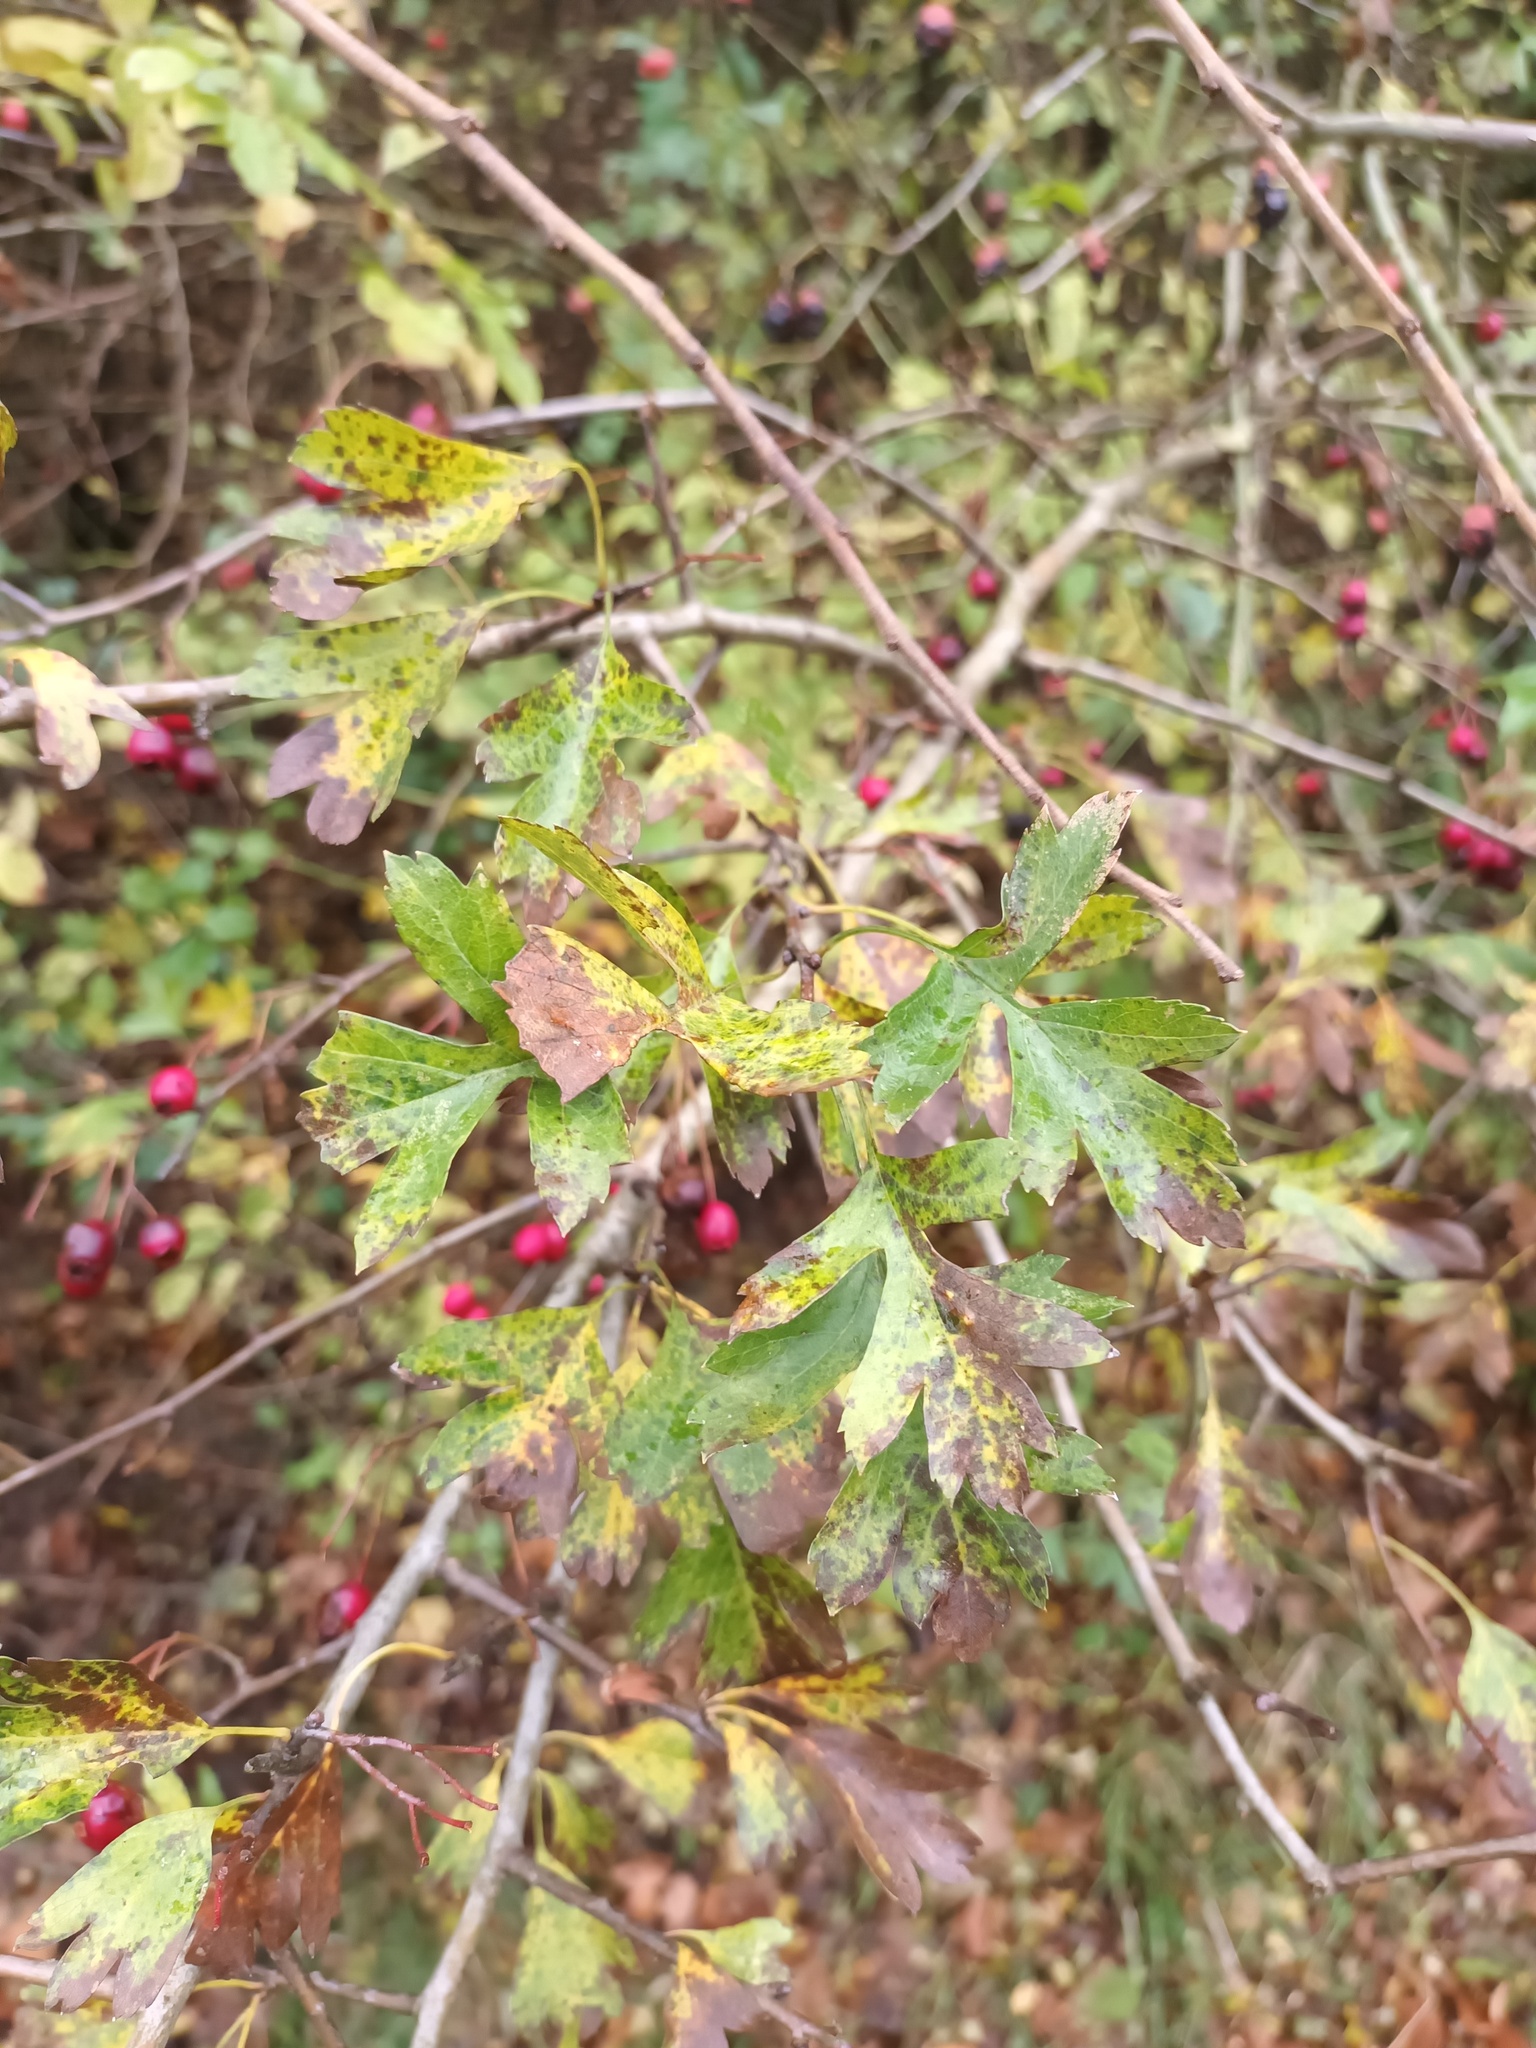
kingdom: Plantae
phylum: Tracheophyta
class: Magnoliopsida
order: Rosales
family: Rosaceae
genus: Crataegus
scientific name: Crataegus monogyna
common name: Hawthorn
